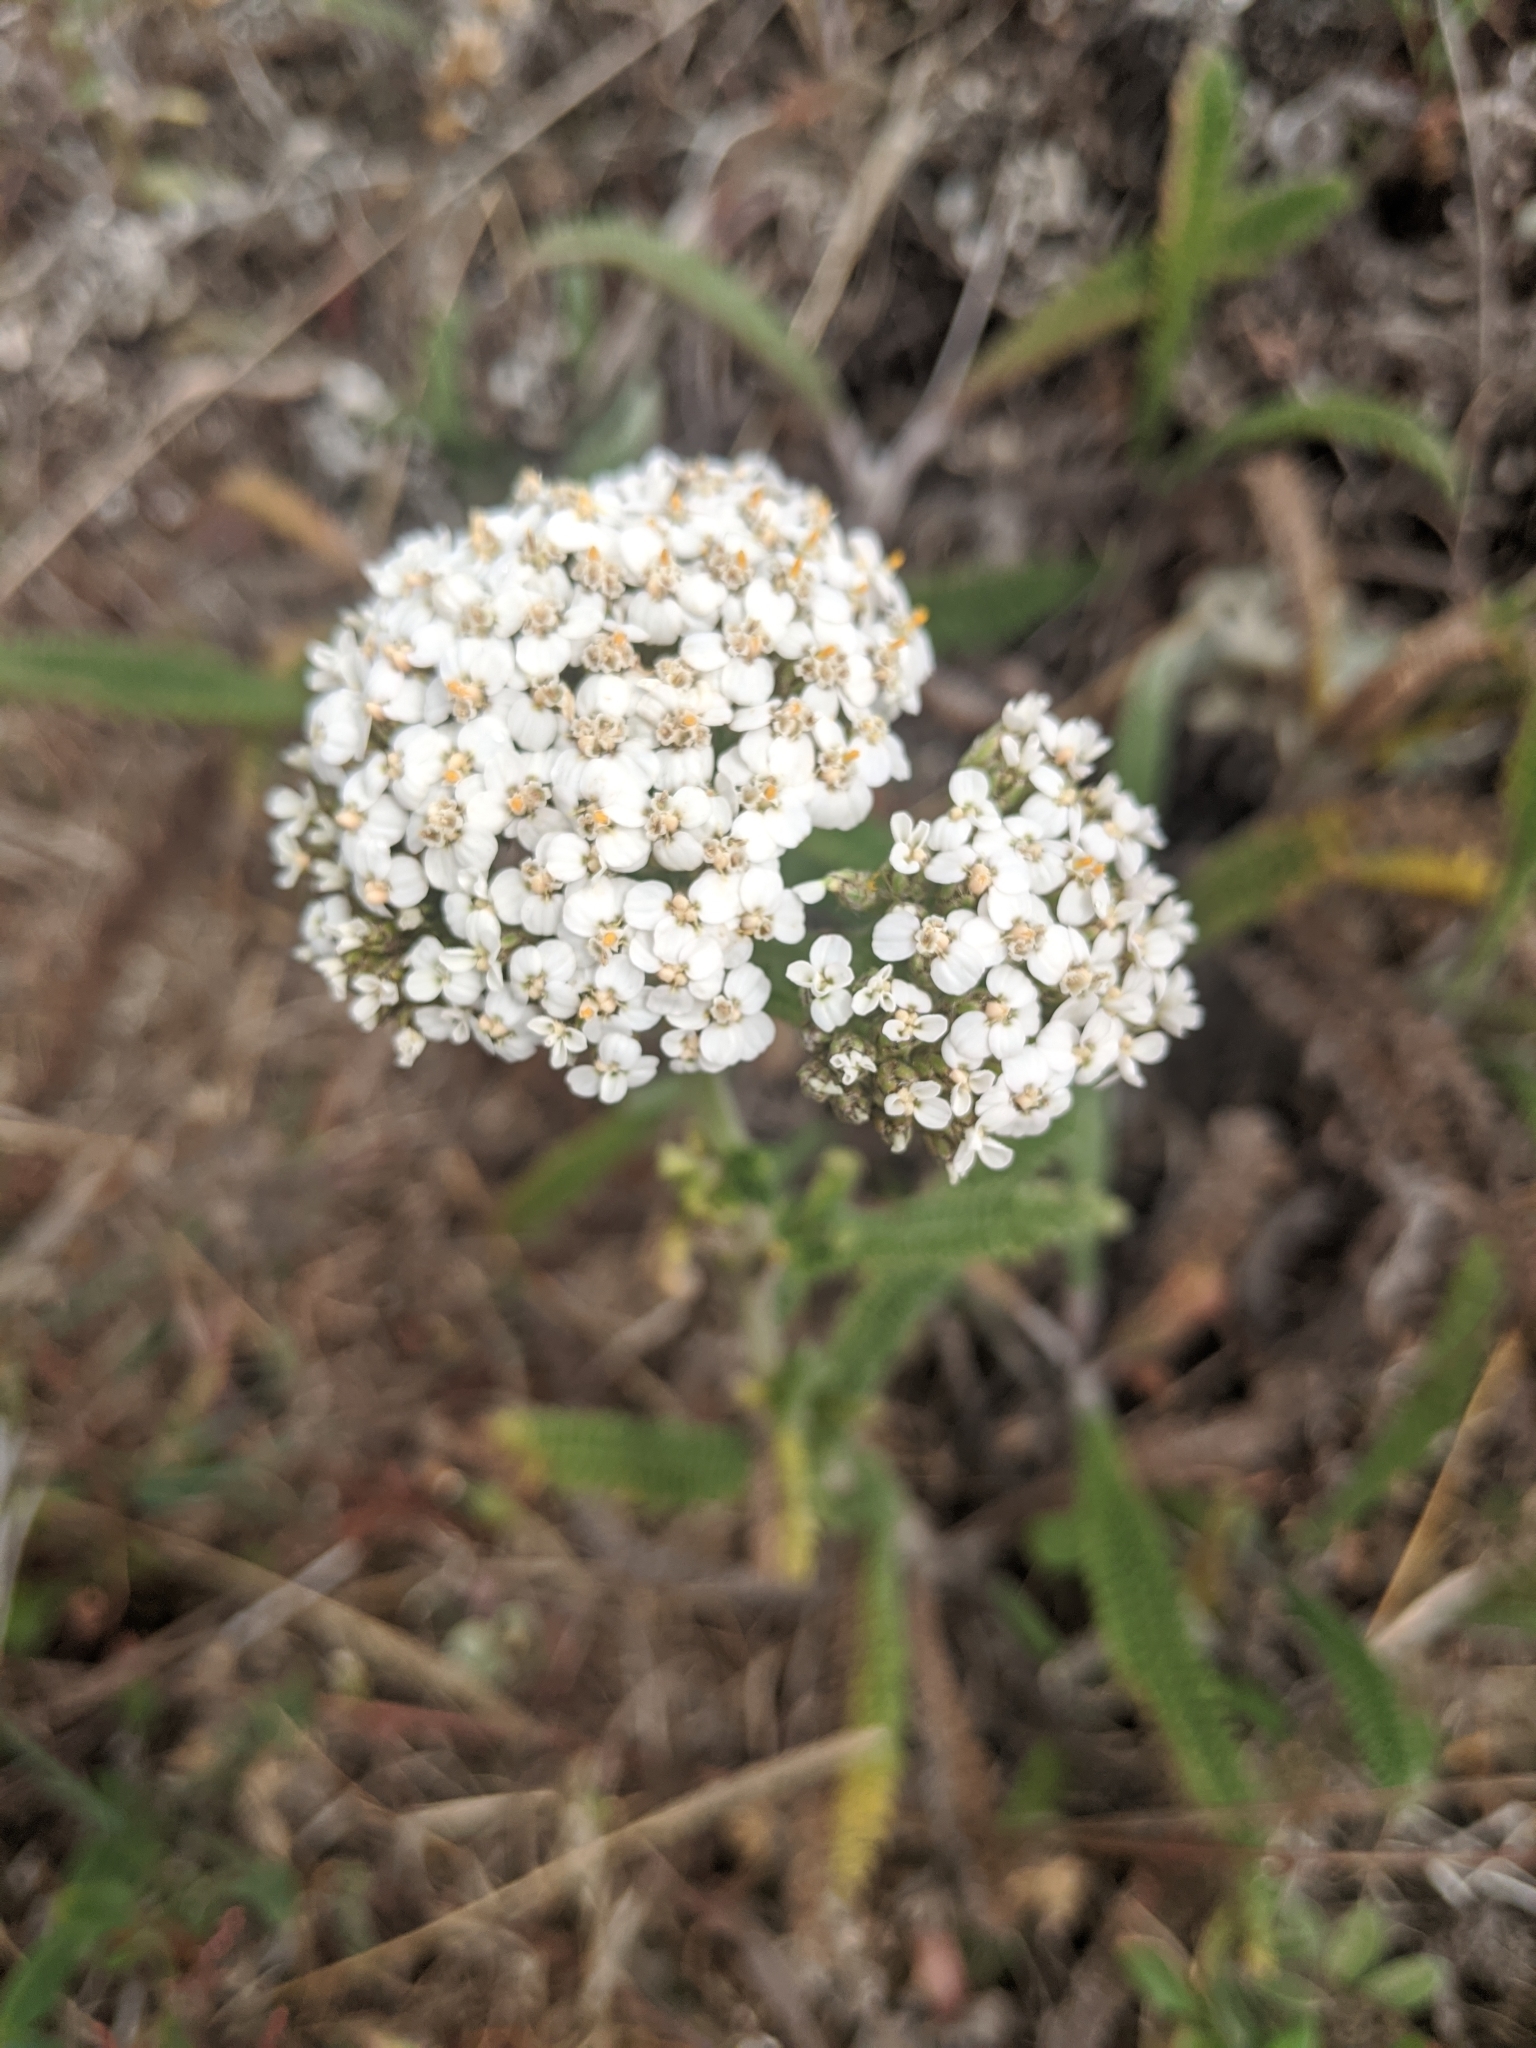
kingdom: Plantae
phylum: Tracheophyta
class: Magnoliopsida
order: Asterales
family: Asteraceae
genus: Achillea
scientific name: Achillea millefolium
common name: Yarrow
